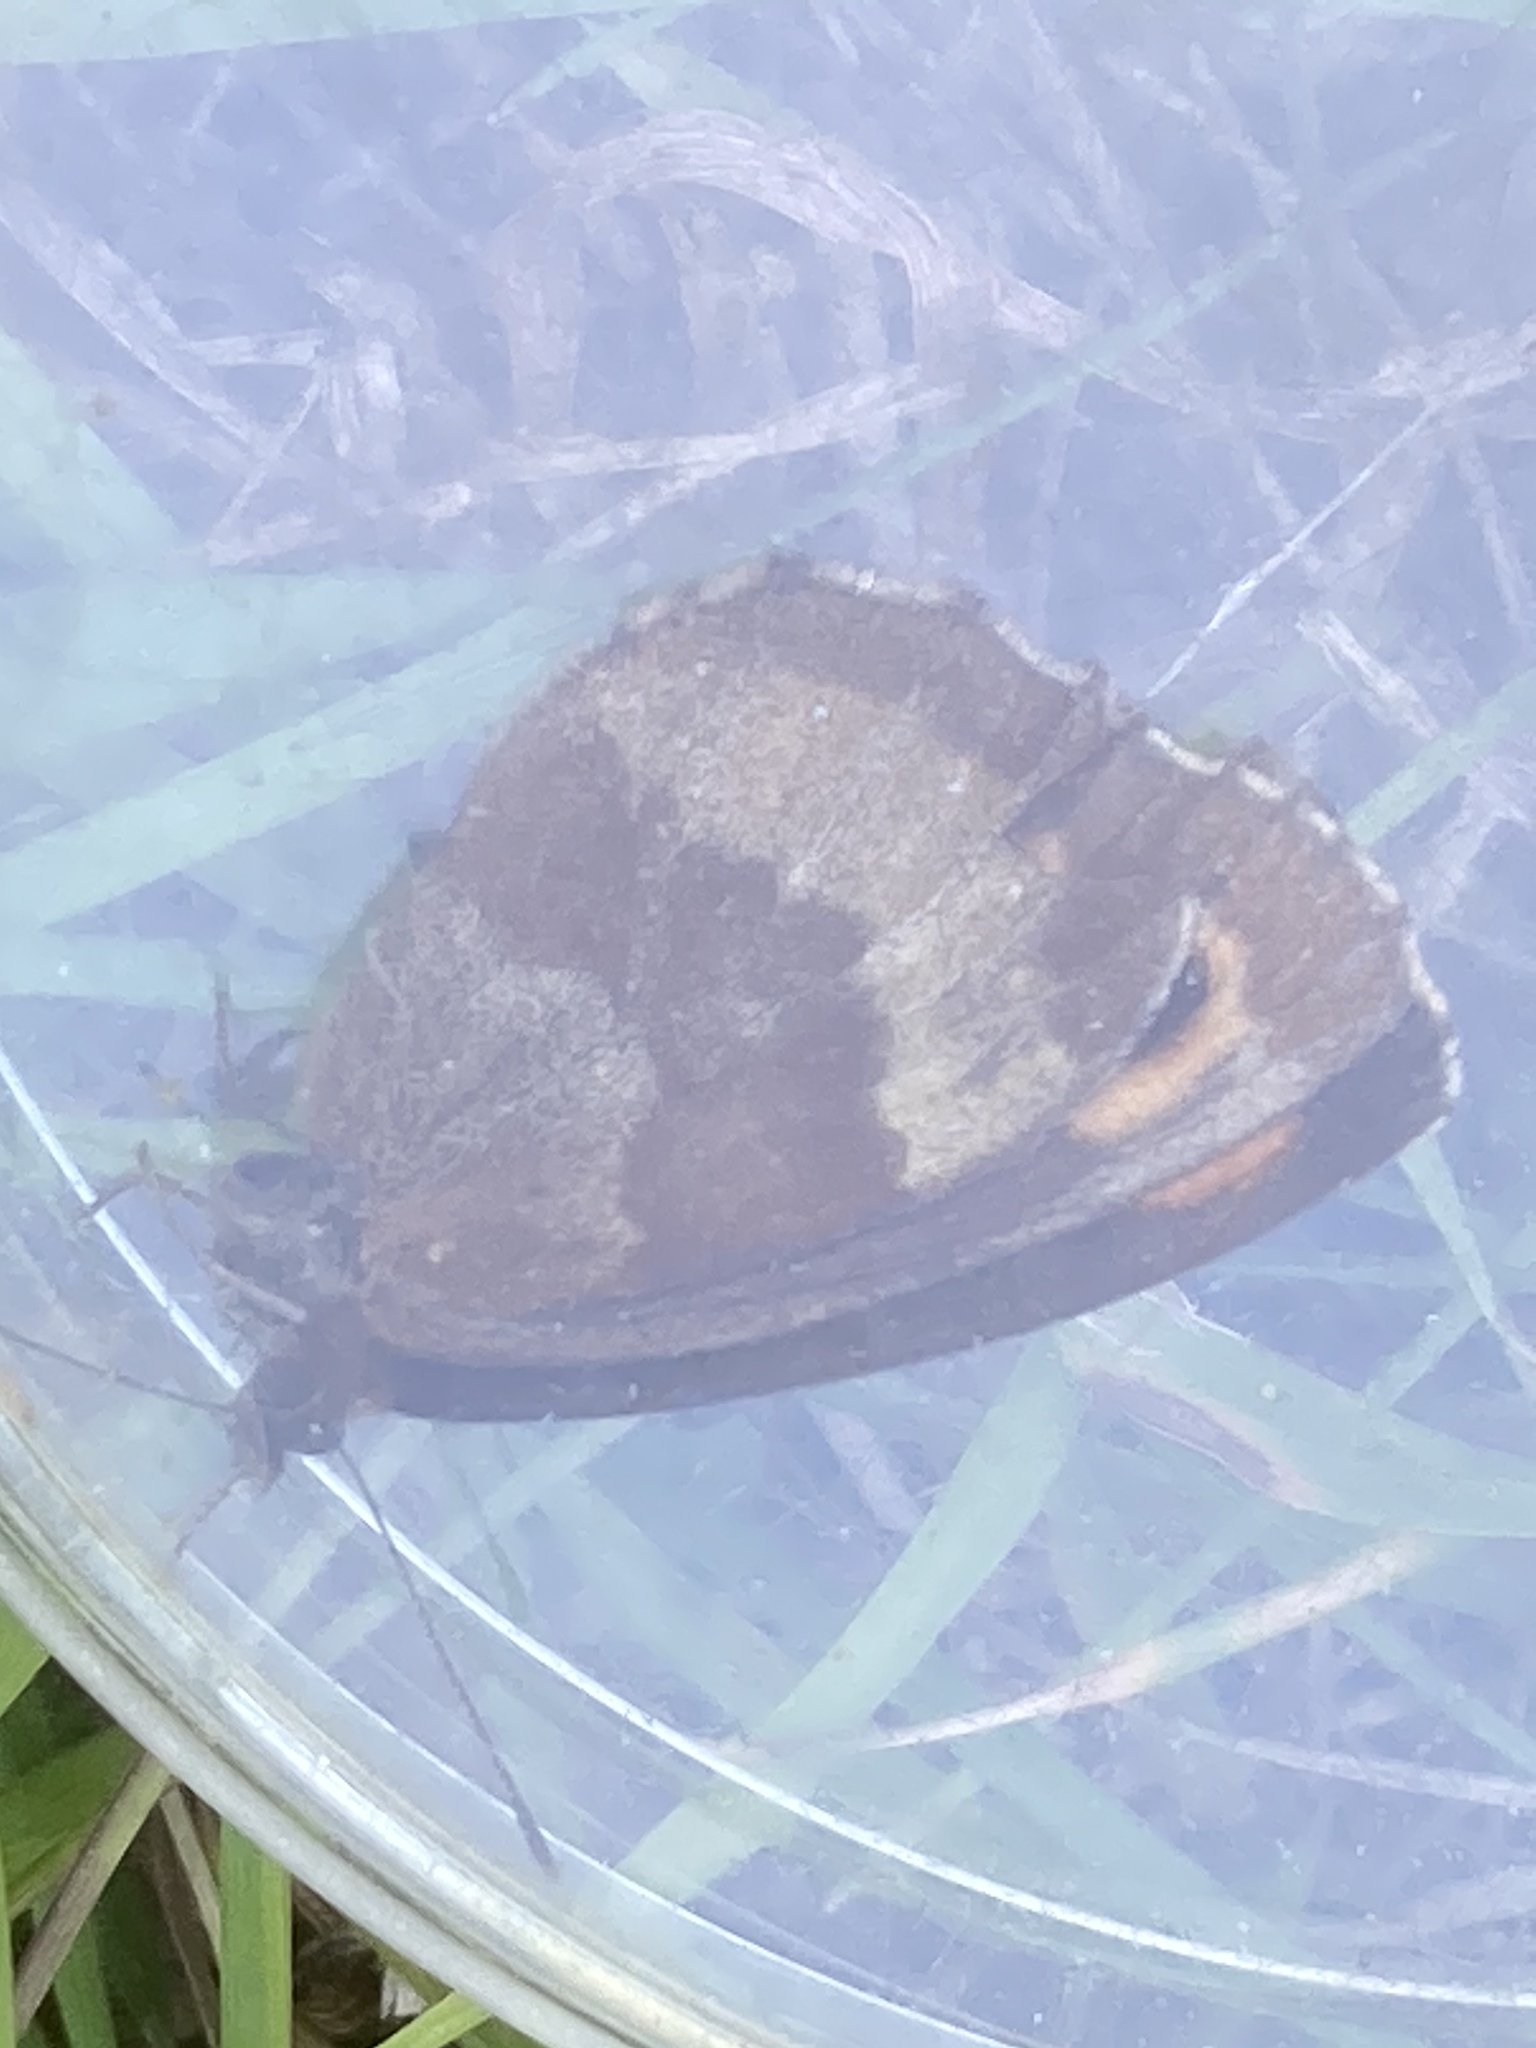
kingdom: Animalia
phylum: Arthropoda
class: Insecta
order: Lepidoptera
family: Nymphalidae
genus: Erebia
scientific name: Erebia aethiops
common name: Scotch argus
